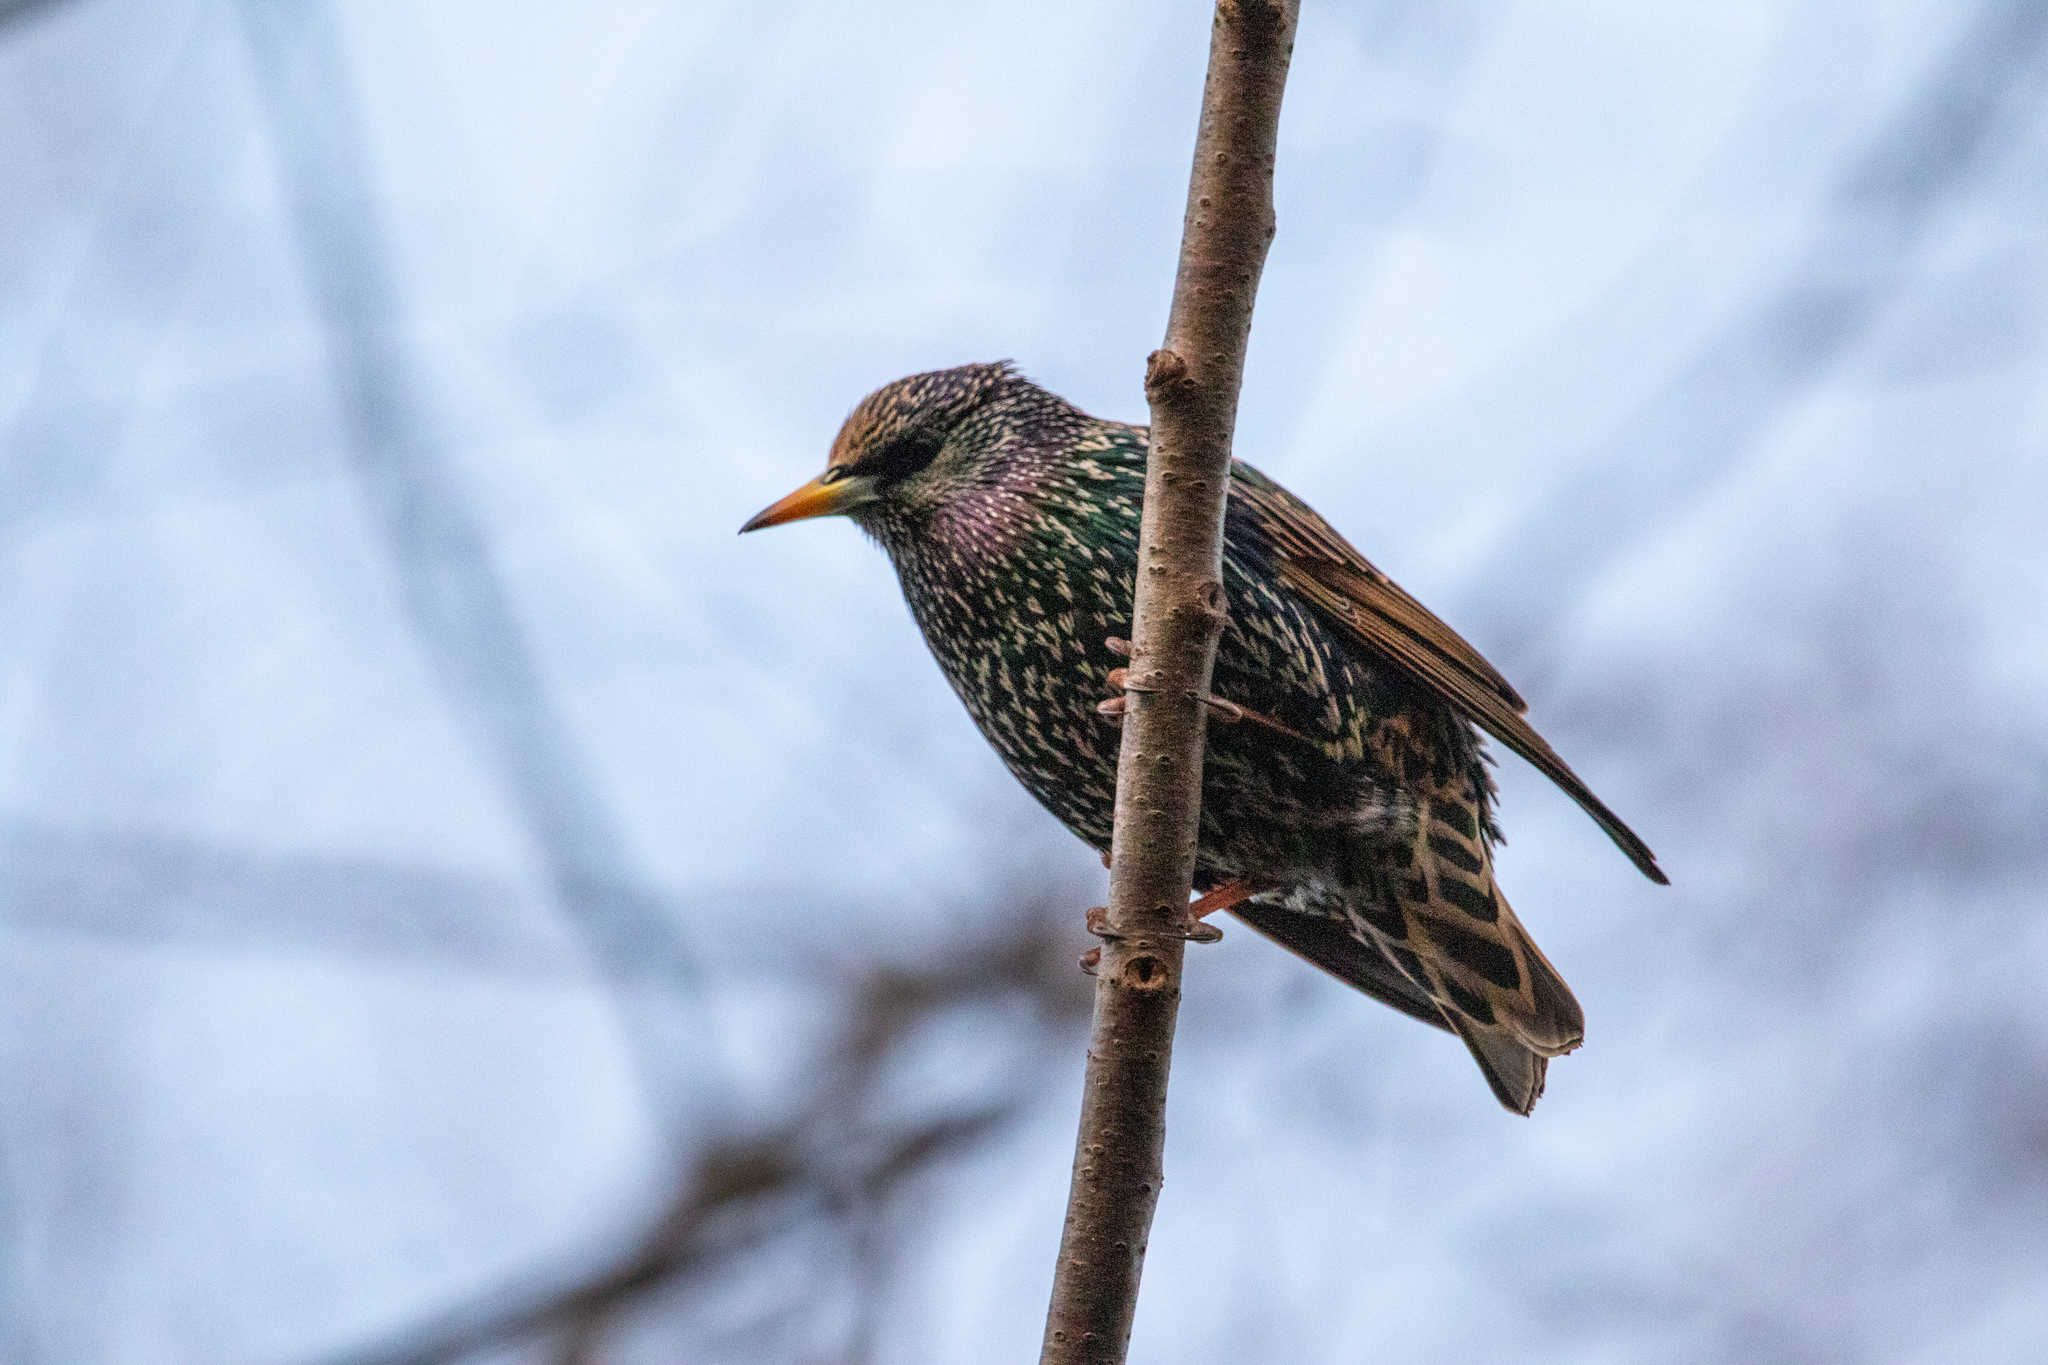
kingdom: Animalia
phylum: Chordata
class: Aves
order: Passeriformes
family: Sturnidae
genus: Sturnus
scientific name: Sturnus vulgaris
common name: Common starling
